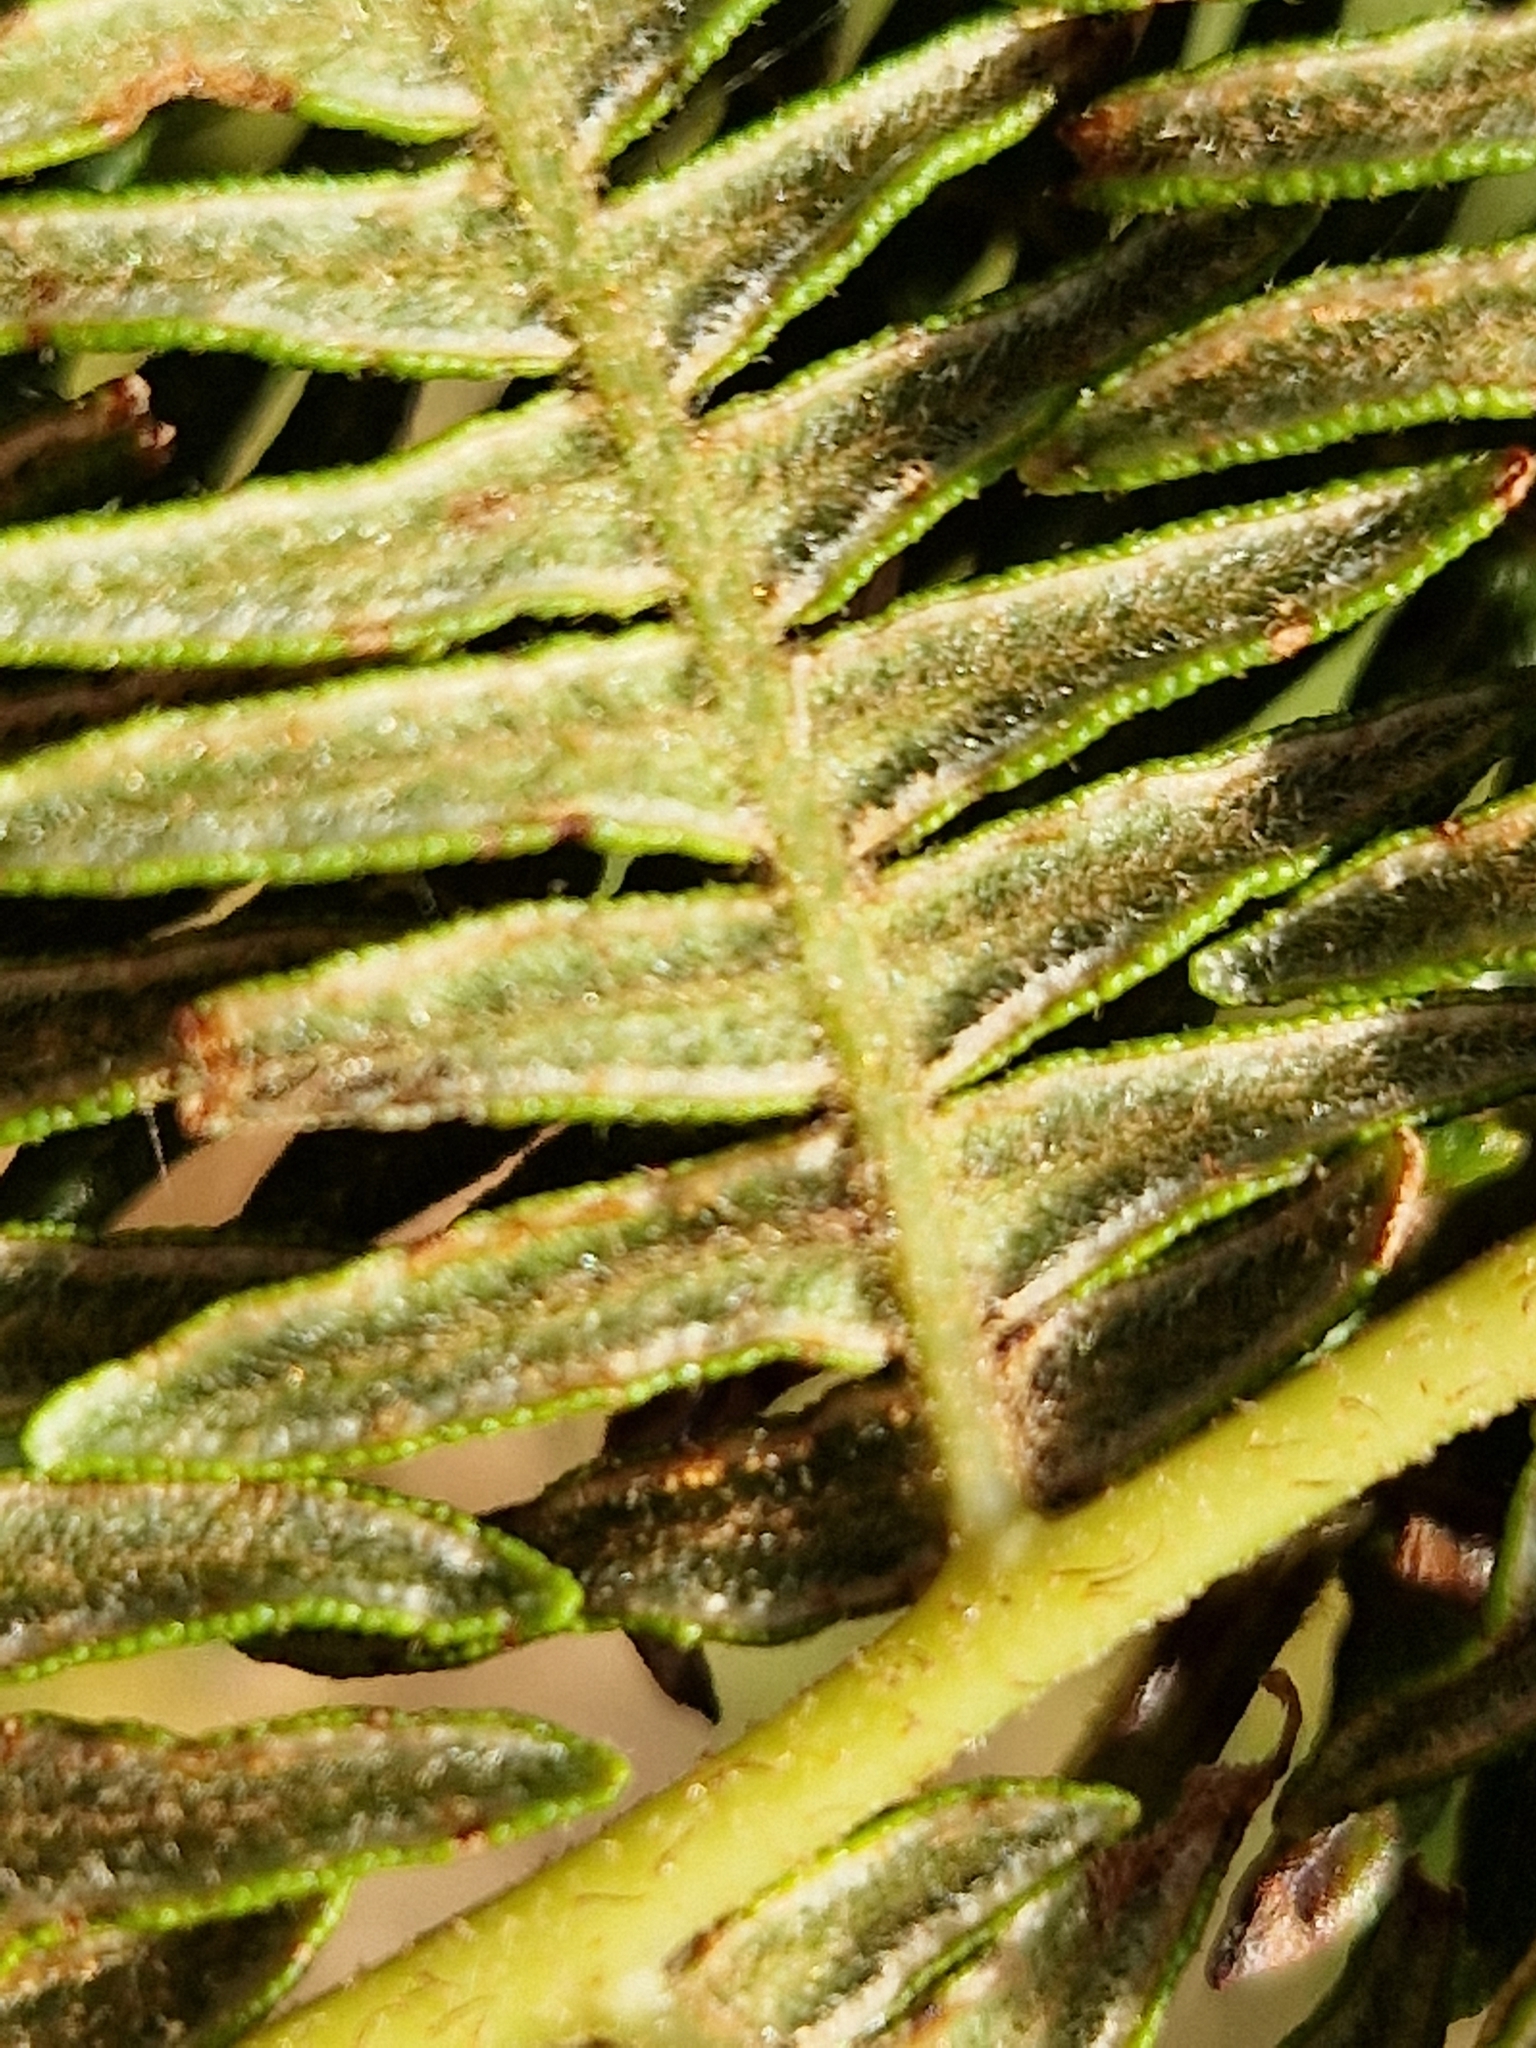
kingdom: Plantae
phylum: Tracheophyta
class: Polypodiopsida
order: Polypodiales
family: Dennstaedtiaceae
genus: Pteridium
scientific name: Pteridium aquilinum
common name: Bracken
